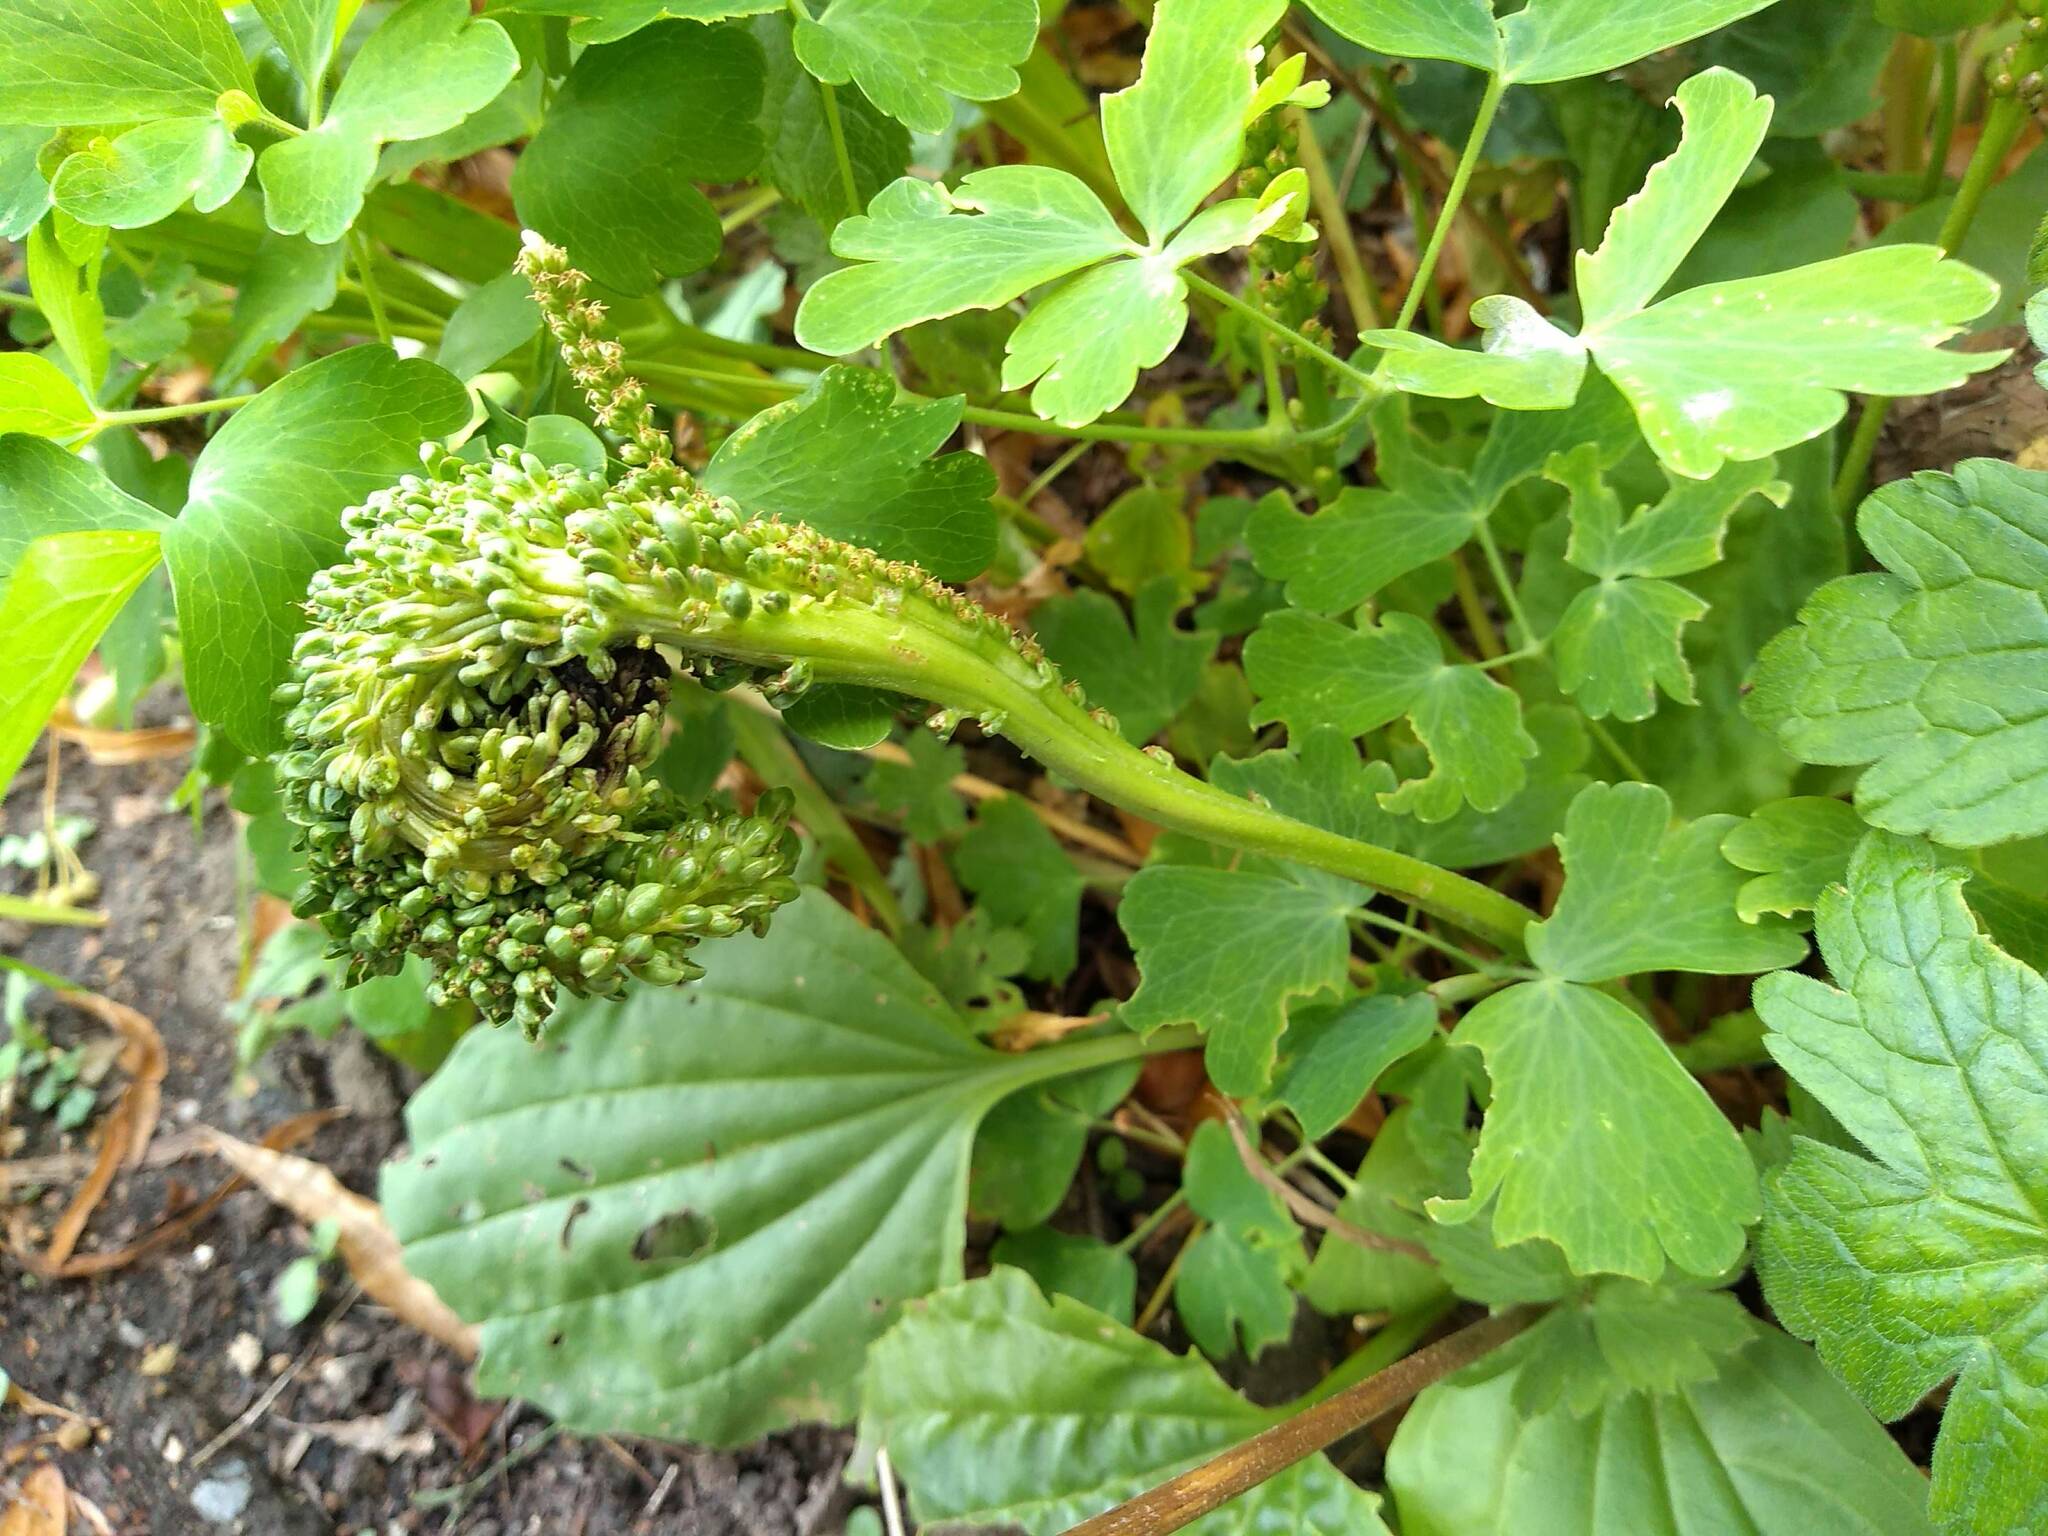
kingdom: Plantae
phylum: Tracheophyta
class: Magnoliopsida
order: Lamiales
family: Plantaginaceae
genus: Plantago
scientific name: Plantago major
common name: Common plantain
